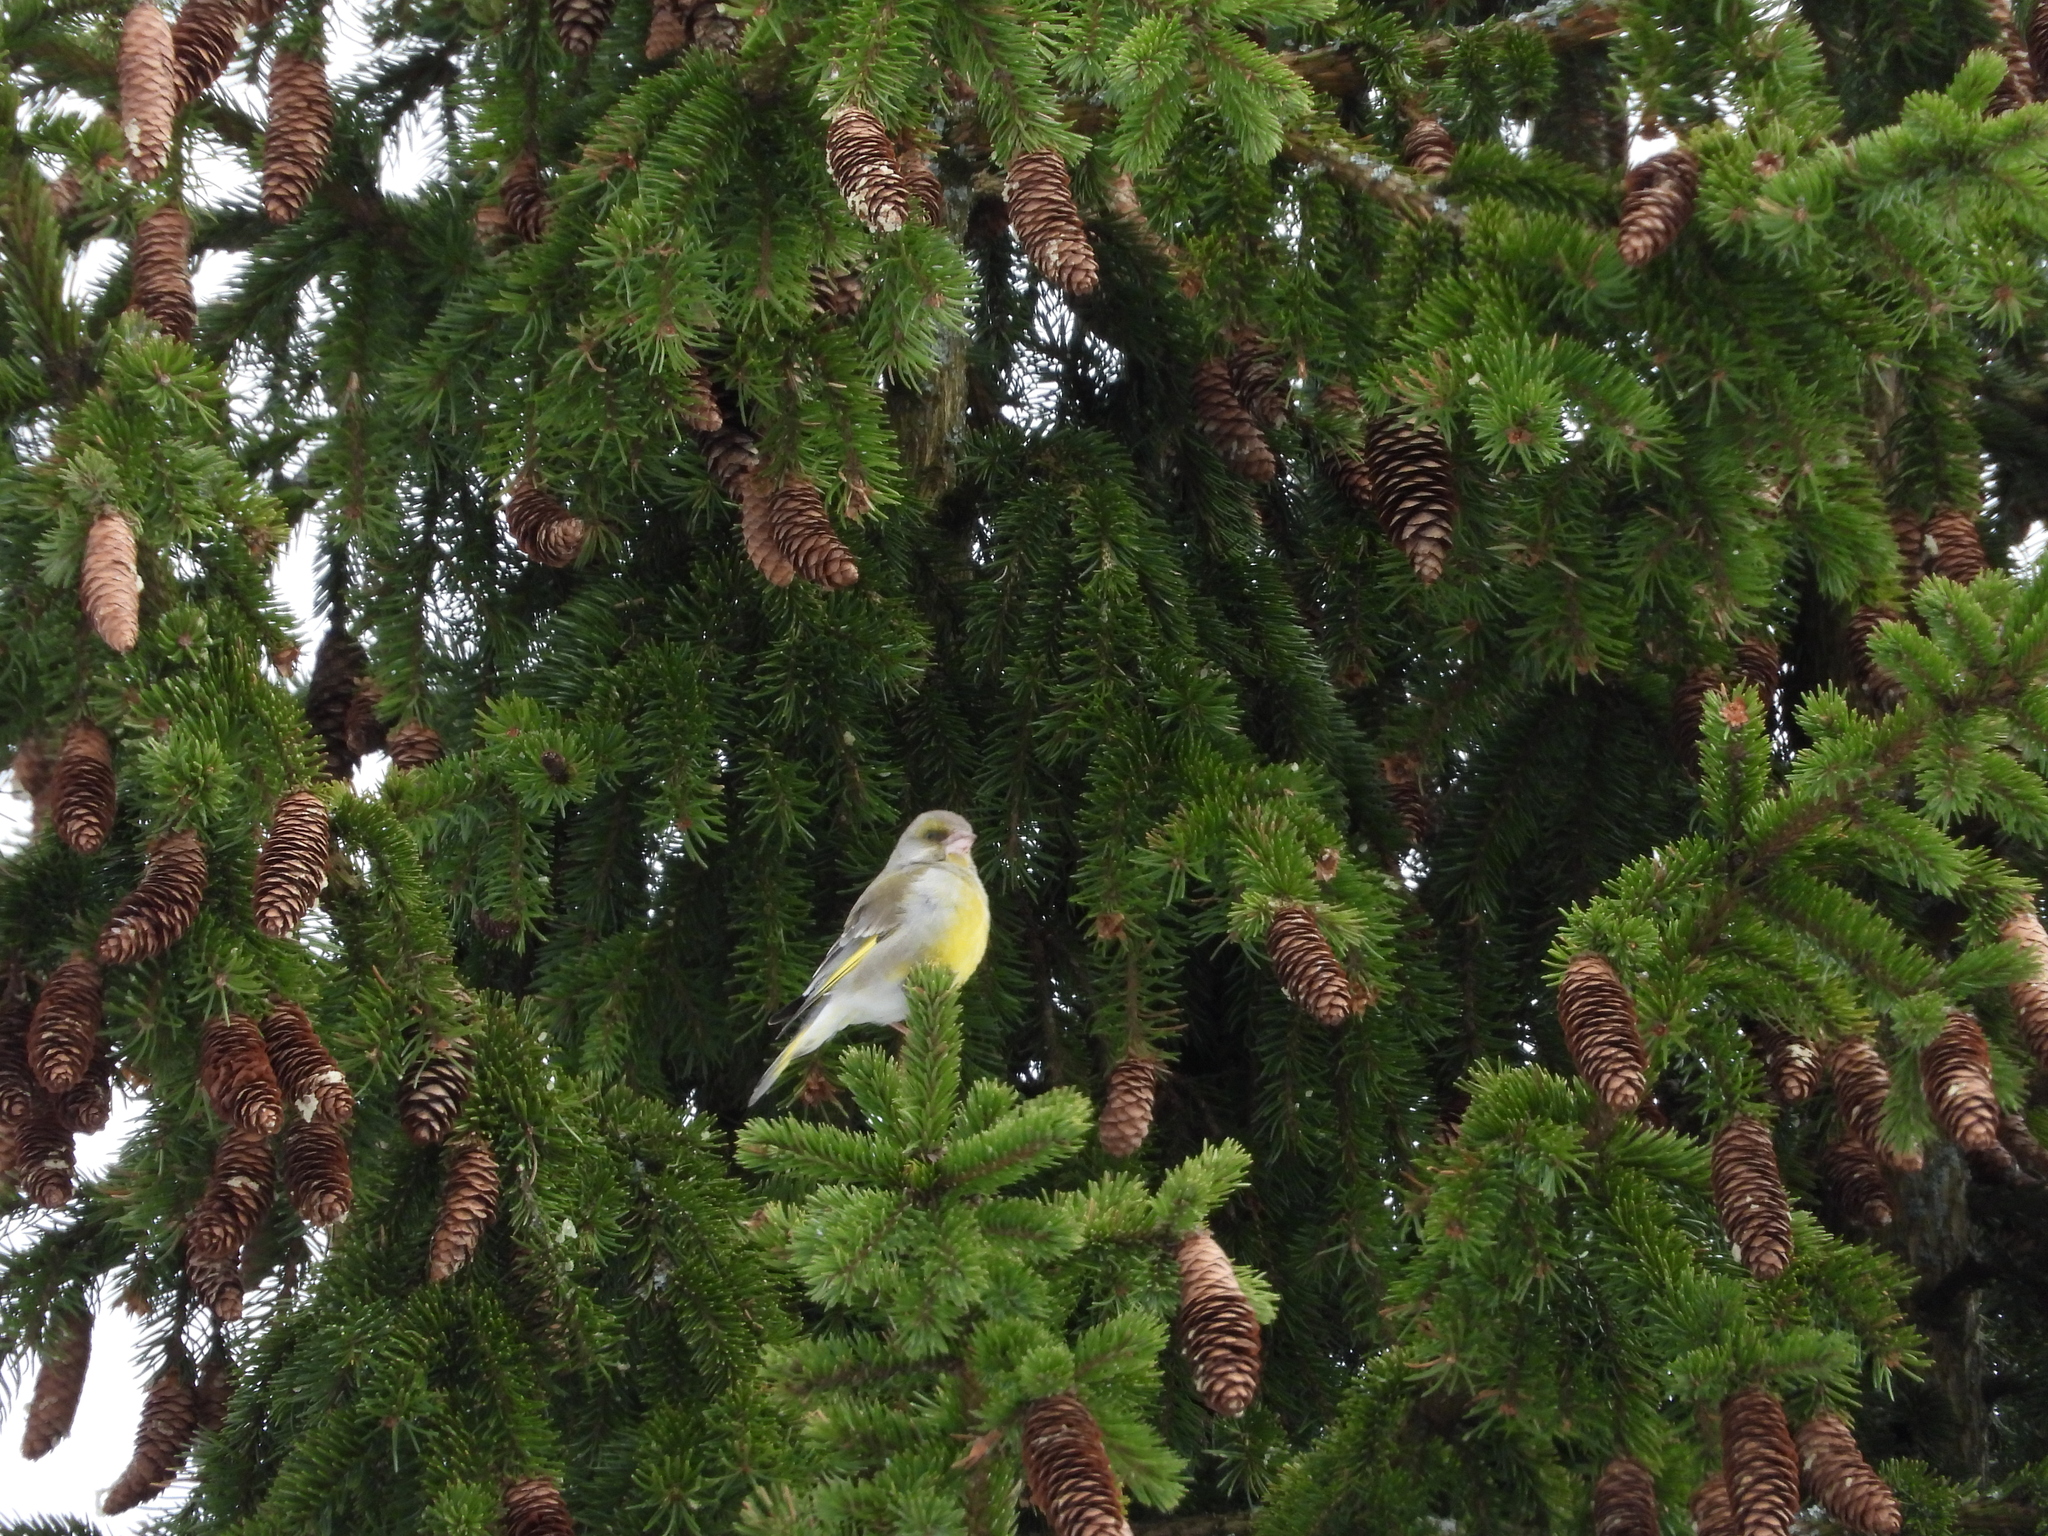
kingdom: Plantae
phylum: Tracheophyta
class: Liliopsida
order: Poales
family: Poaceae
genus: Chloris
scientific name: Chloris chloris
